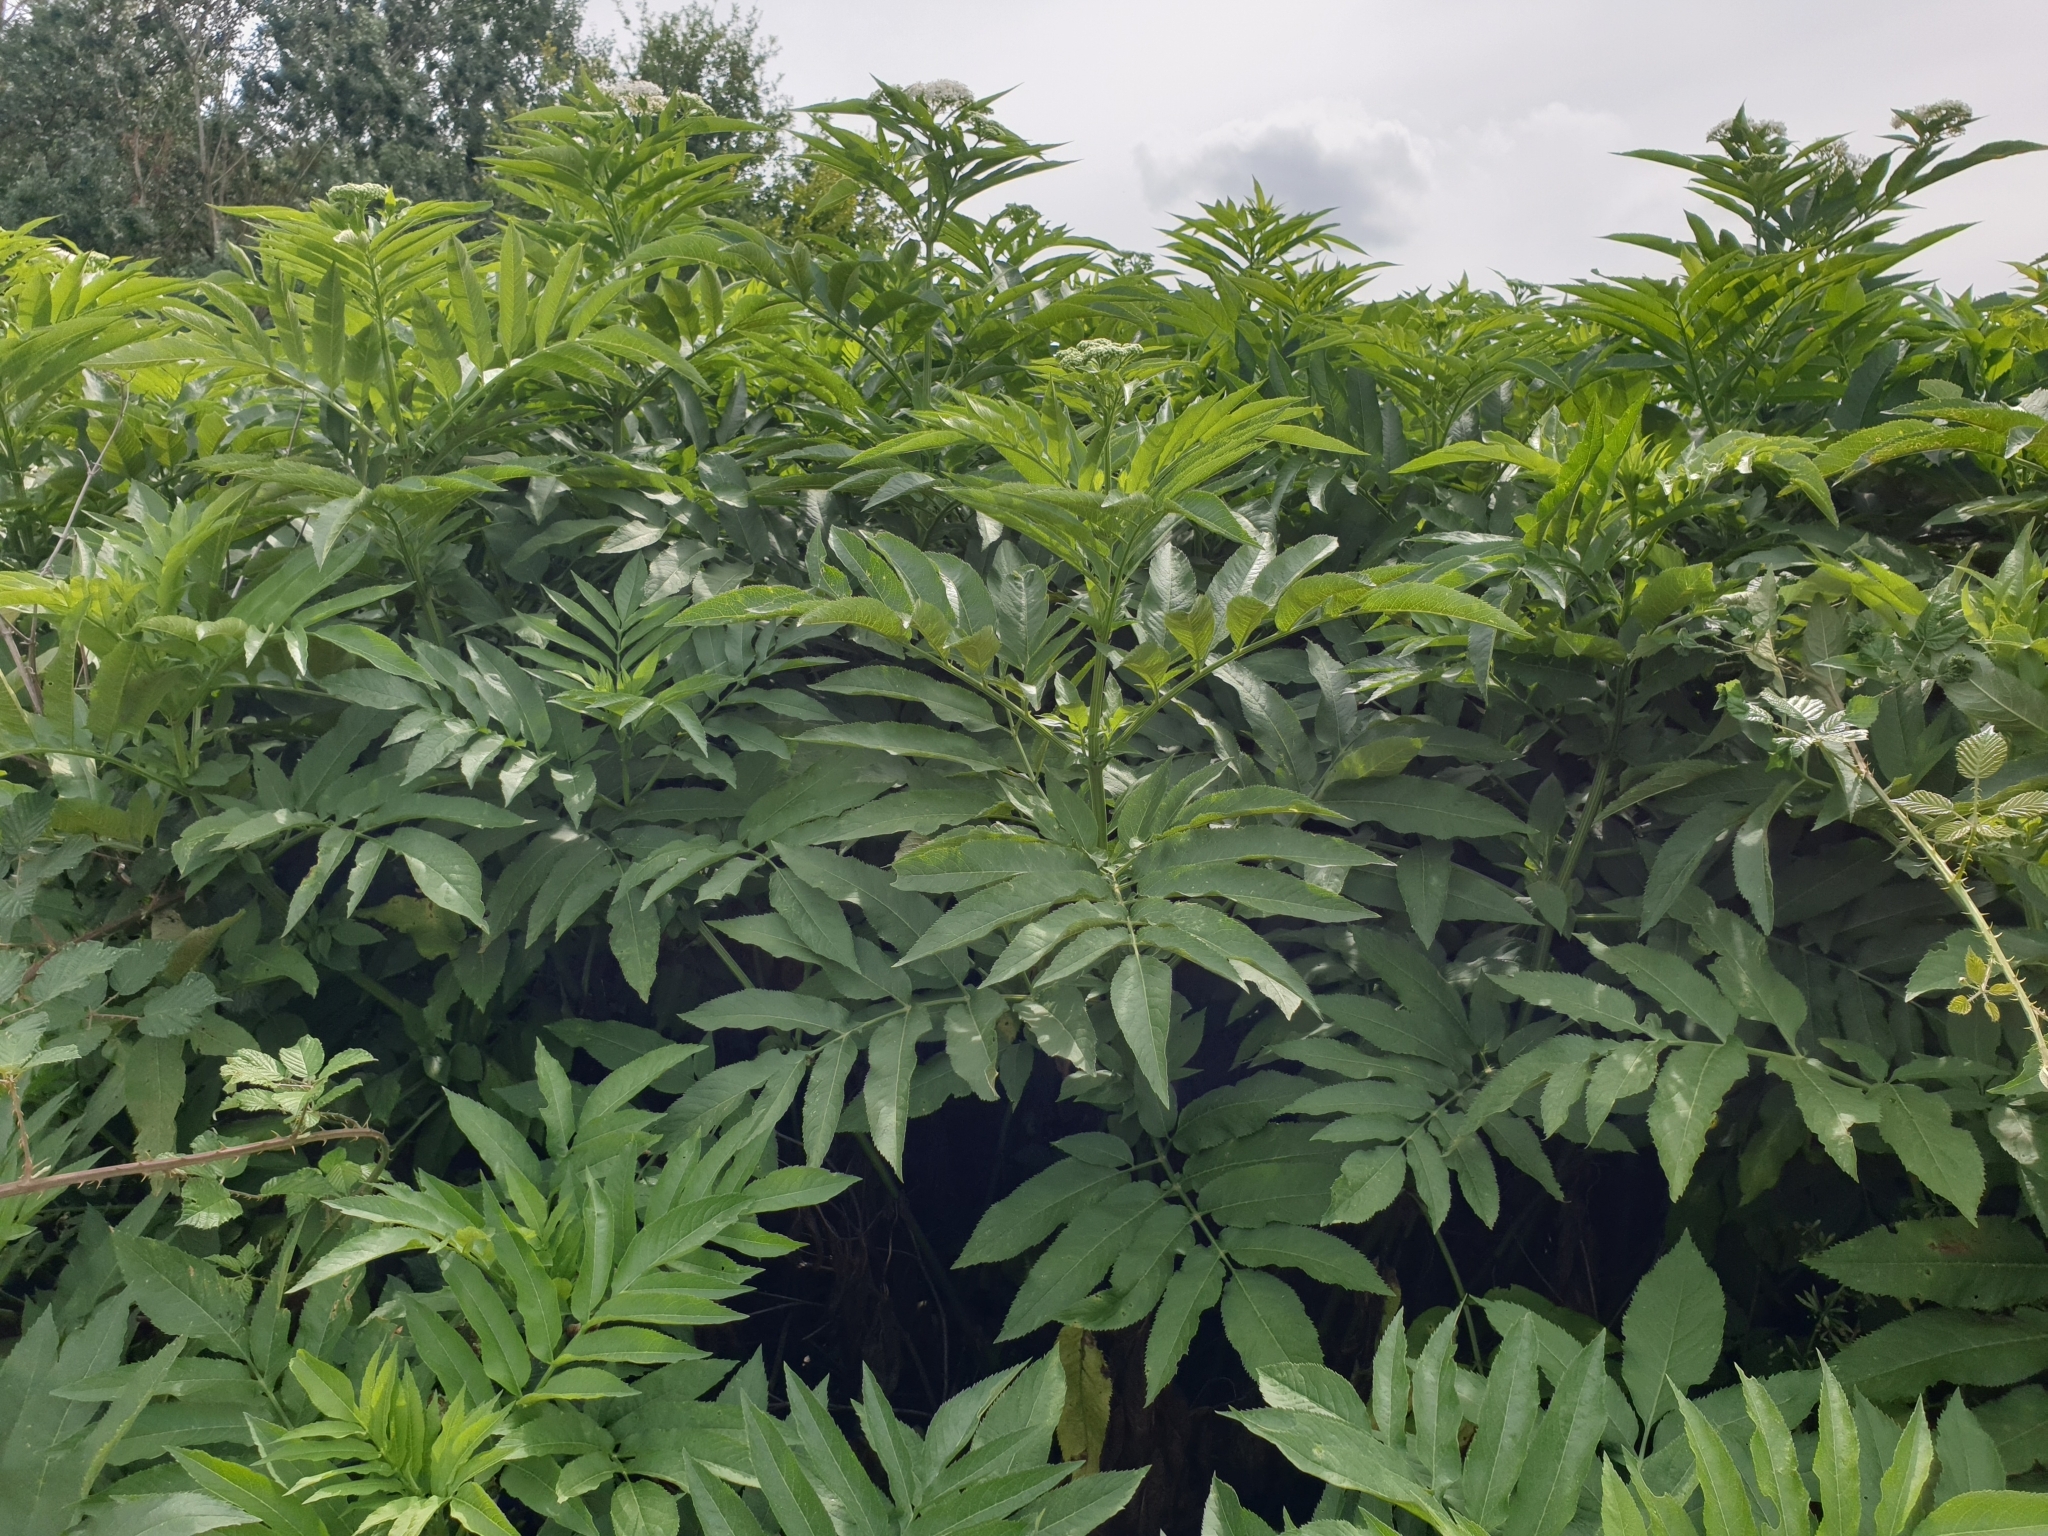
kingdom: Plantae
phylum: Tracheophyta
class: Magnoliopsida
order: Dipsacales
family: Viburnaceae
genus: Sambucus
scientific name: Sambucus ebulus
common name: Dwarf elder
